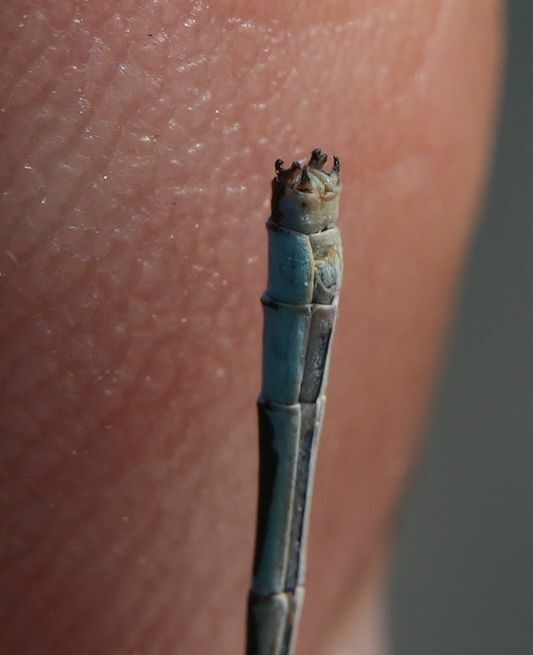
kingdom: Animalia
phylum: Arthropoda
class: Insecta
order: Odonata
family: Coenagrionidae
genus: Enallagma
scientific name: Enallagma ebrium
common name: Marsh bluet
